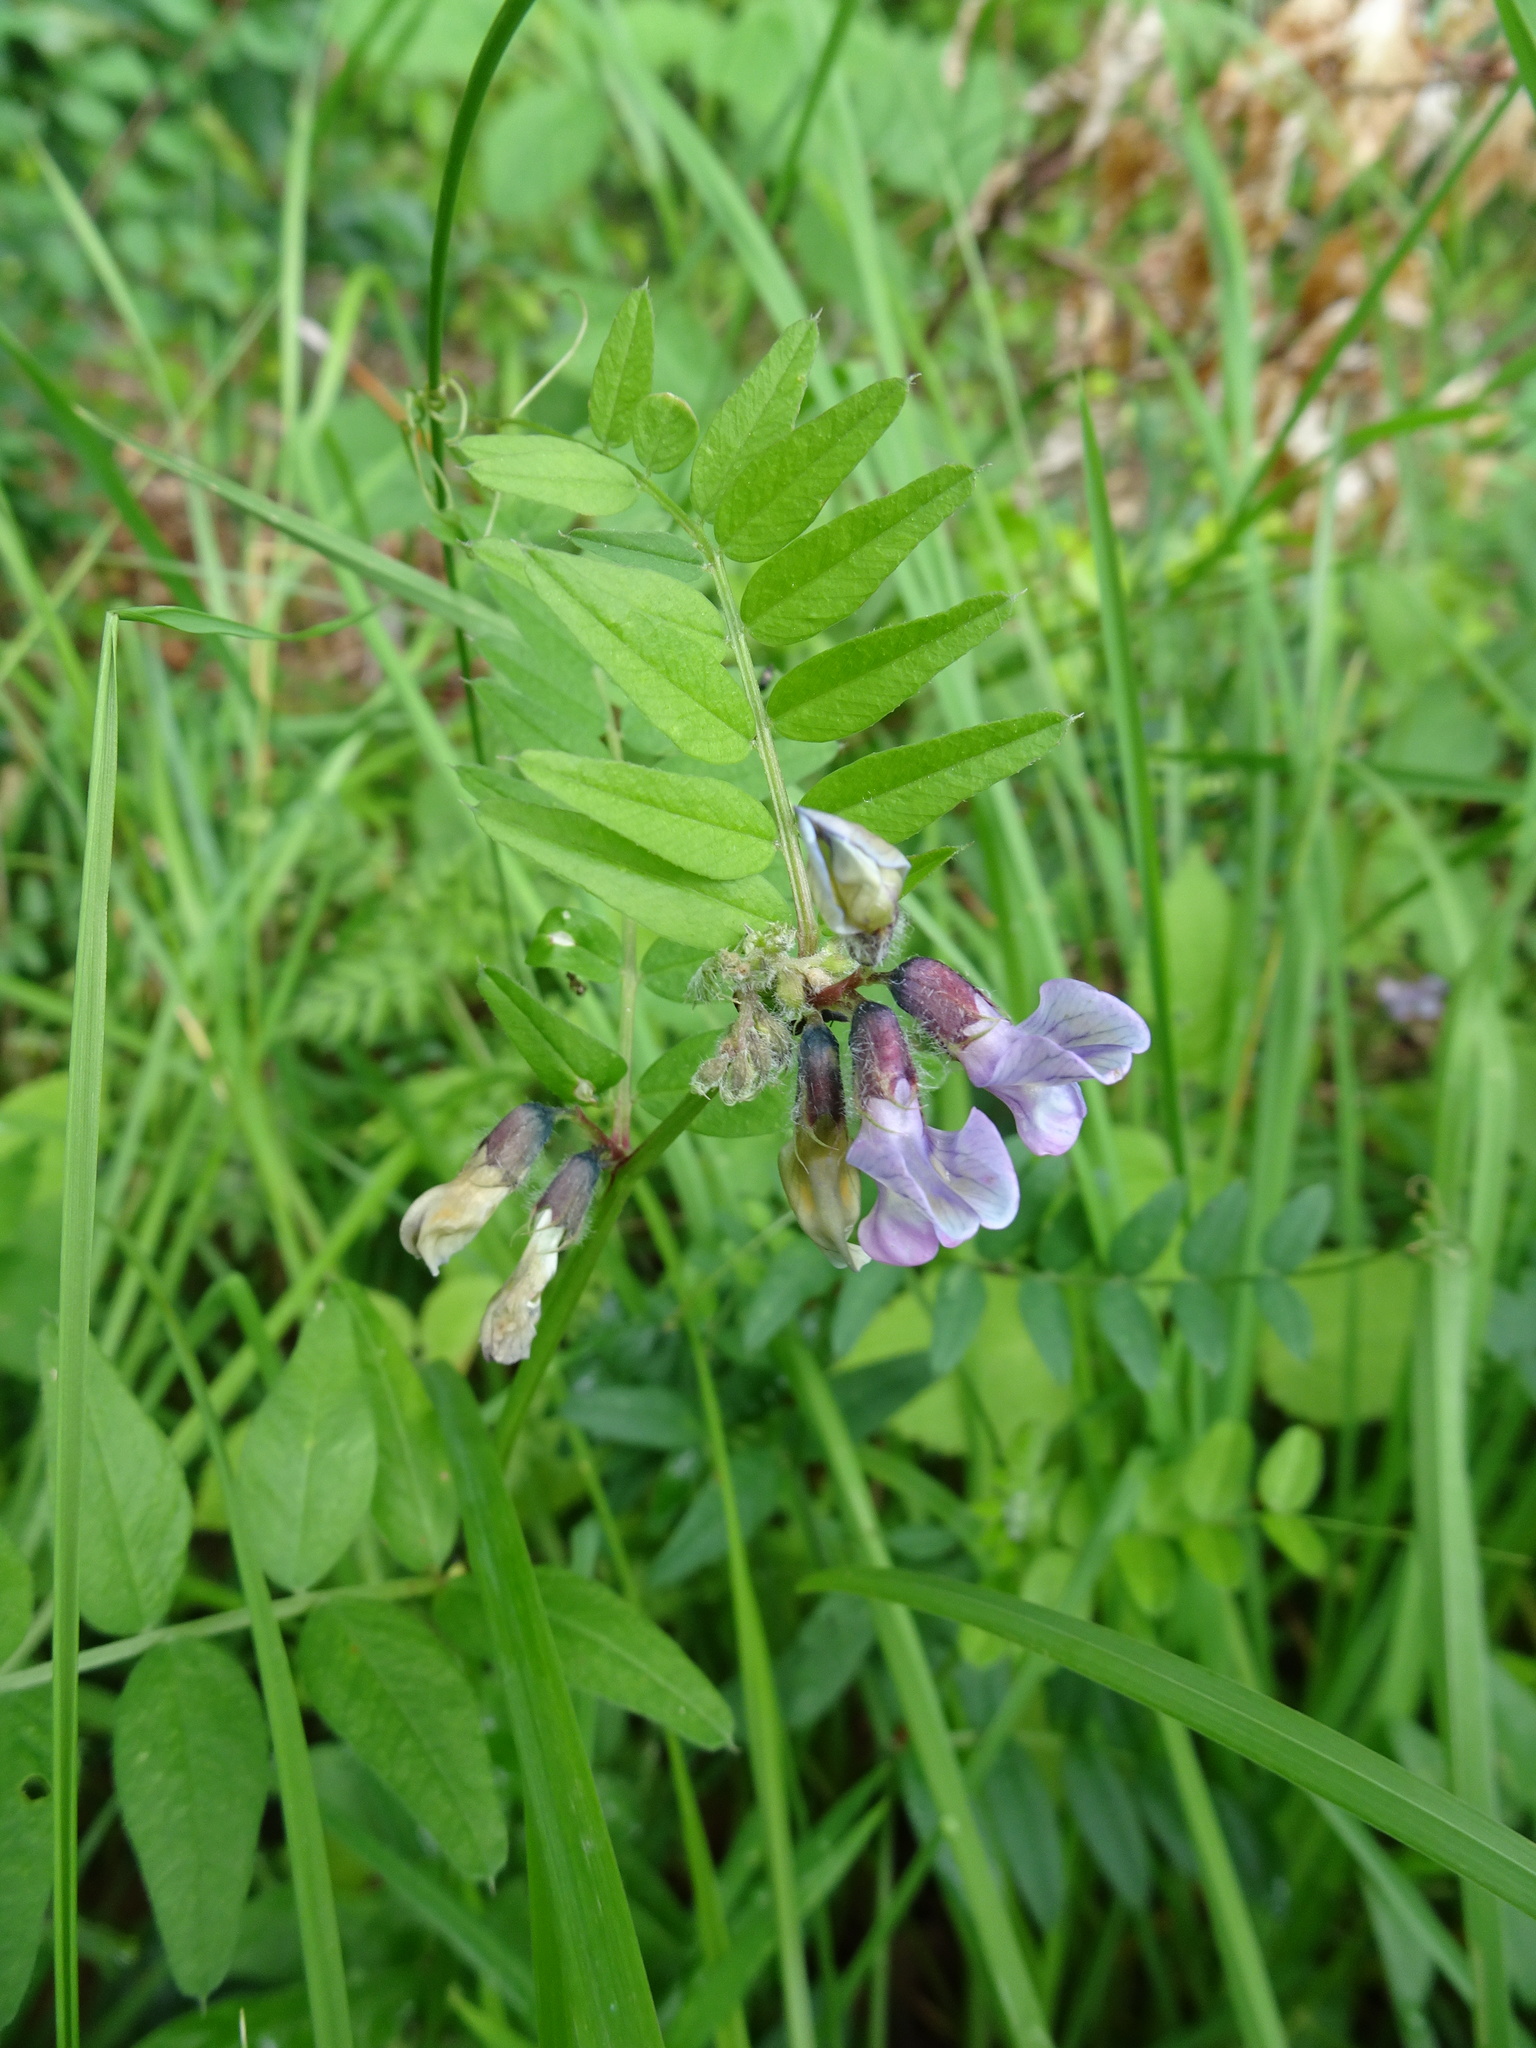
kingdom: Plantae
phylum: Tracheophyta
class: Magnoliopsida
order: Fabales
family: Fabaceae
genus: Vicia
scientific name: Vicia sepium
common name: Bush vetch
